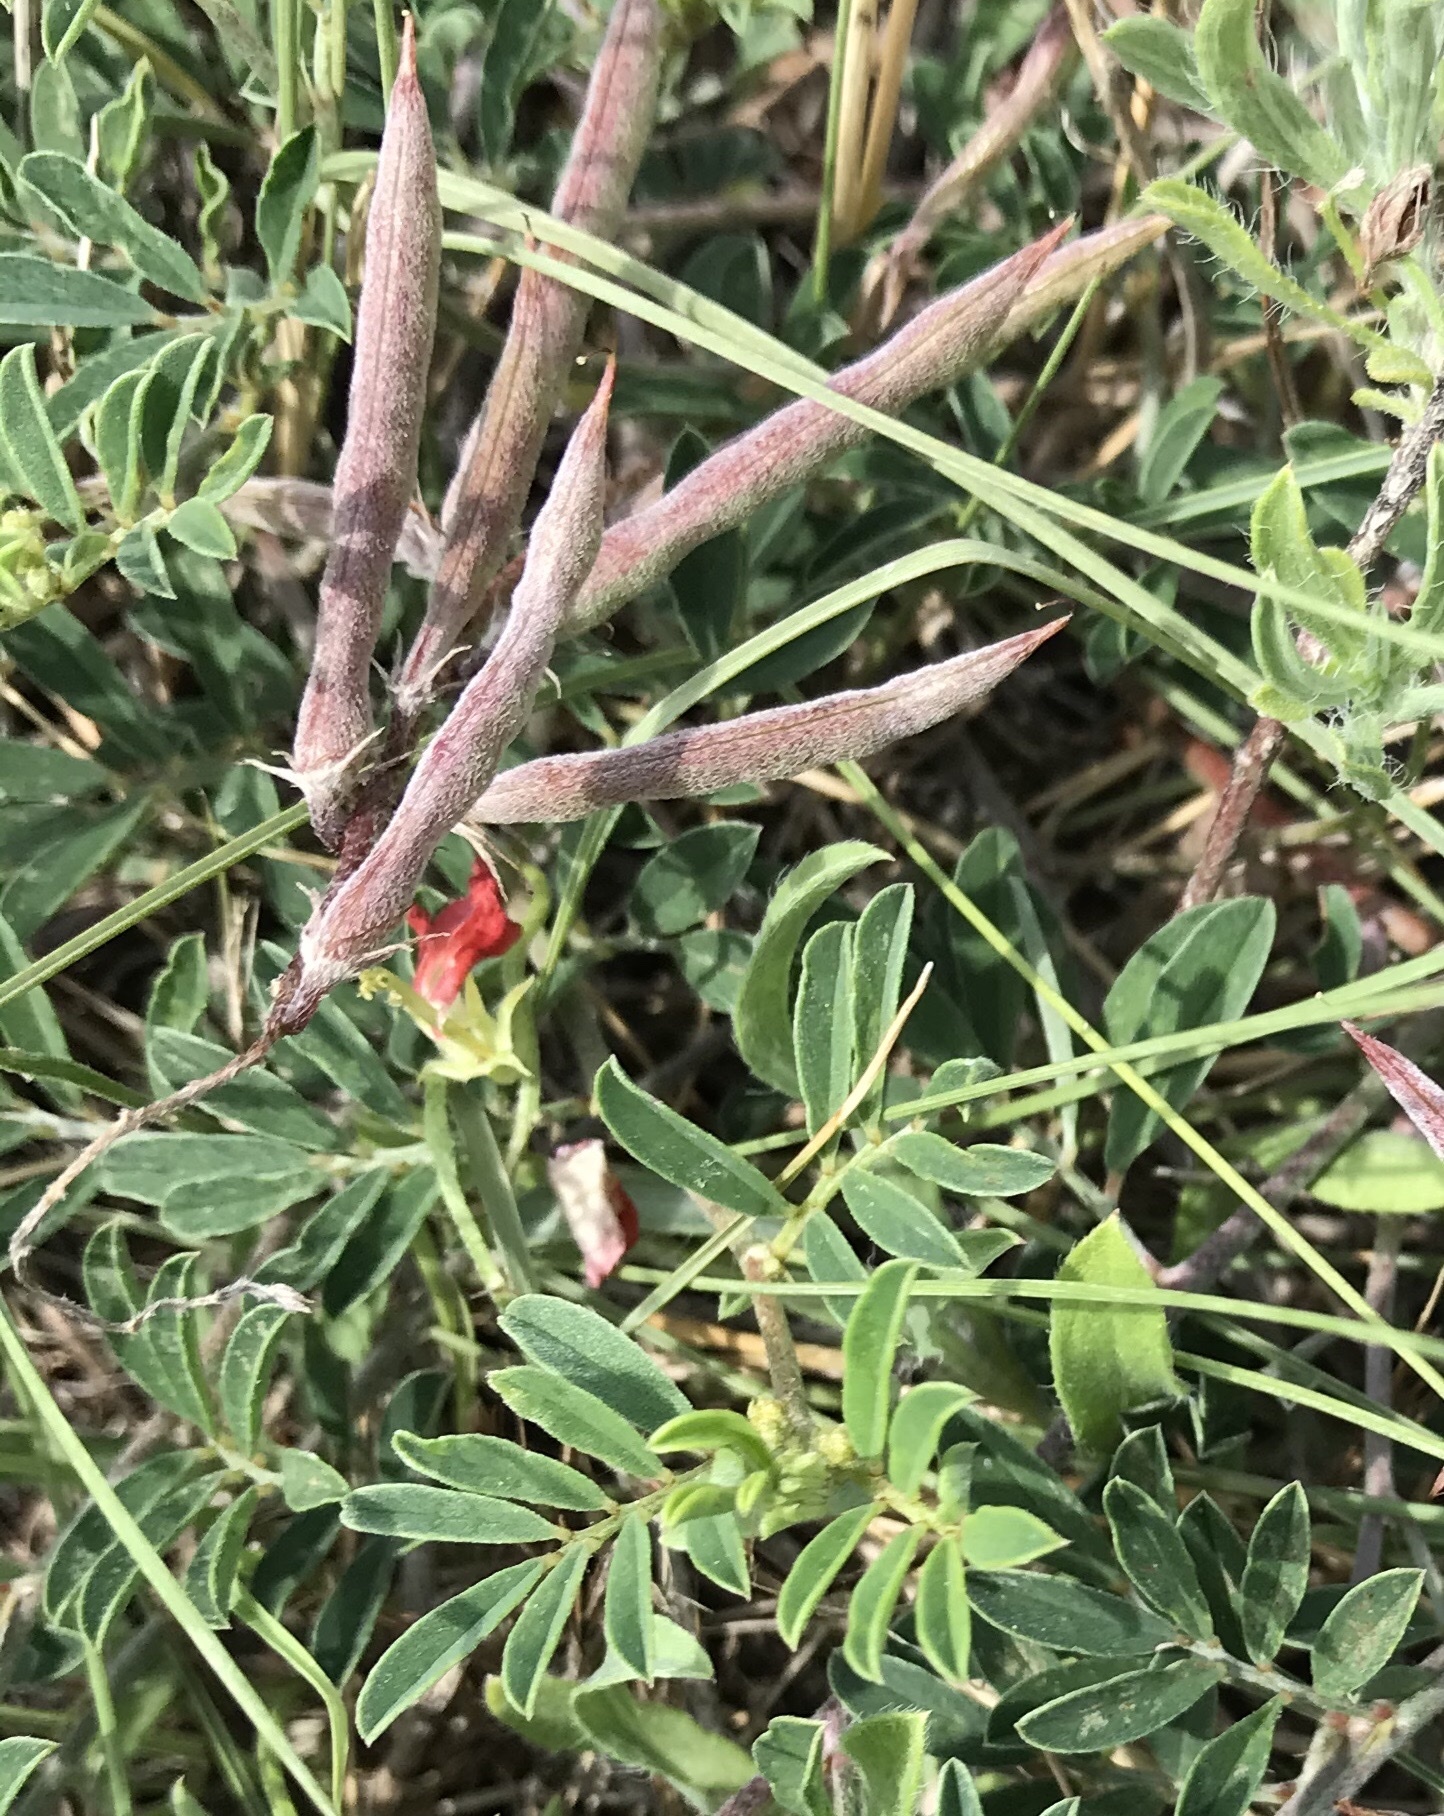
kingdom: Plantae
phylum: Tracheophyta
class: Magnoliopsida
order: Fabales
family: Fabaceae
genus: Indigofera
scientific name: Indigofera miniata
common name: Coast indigo
